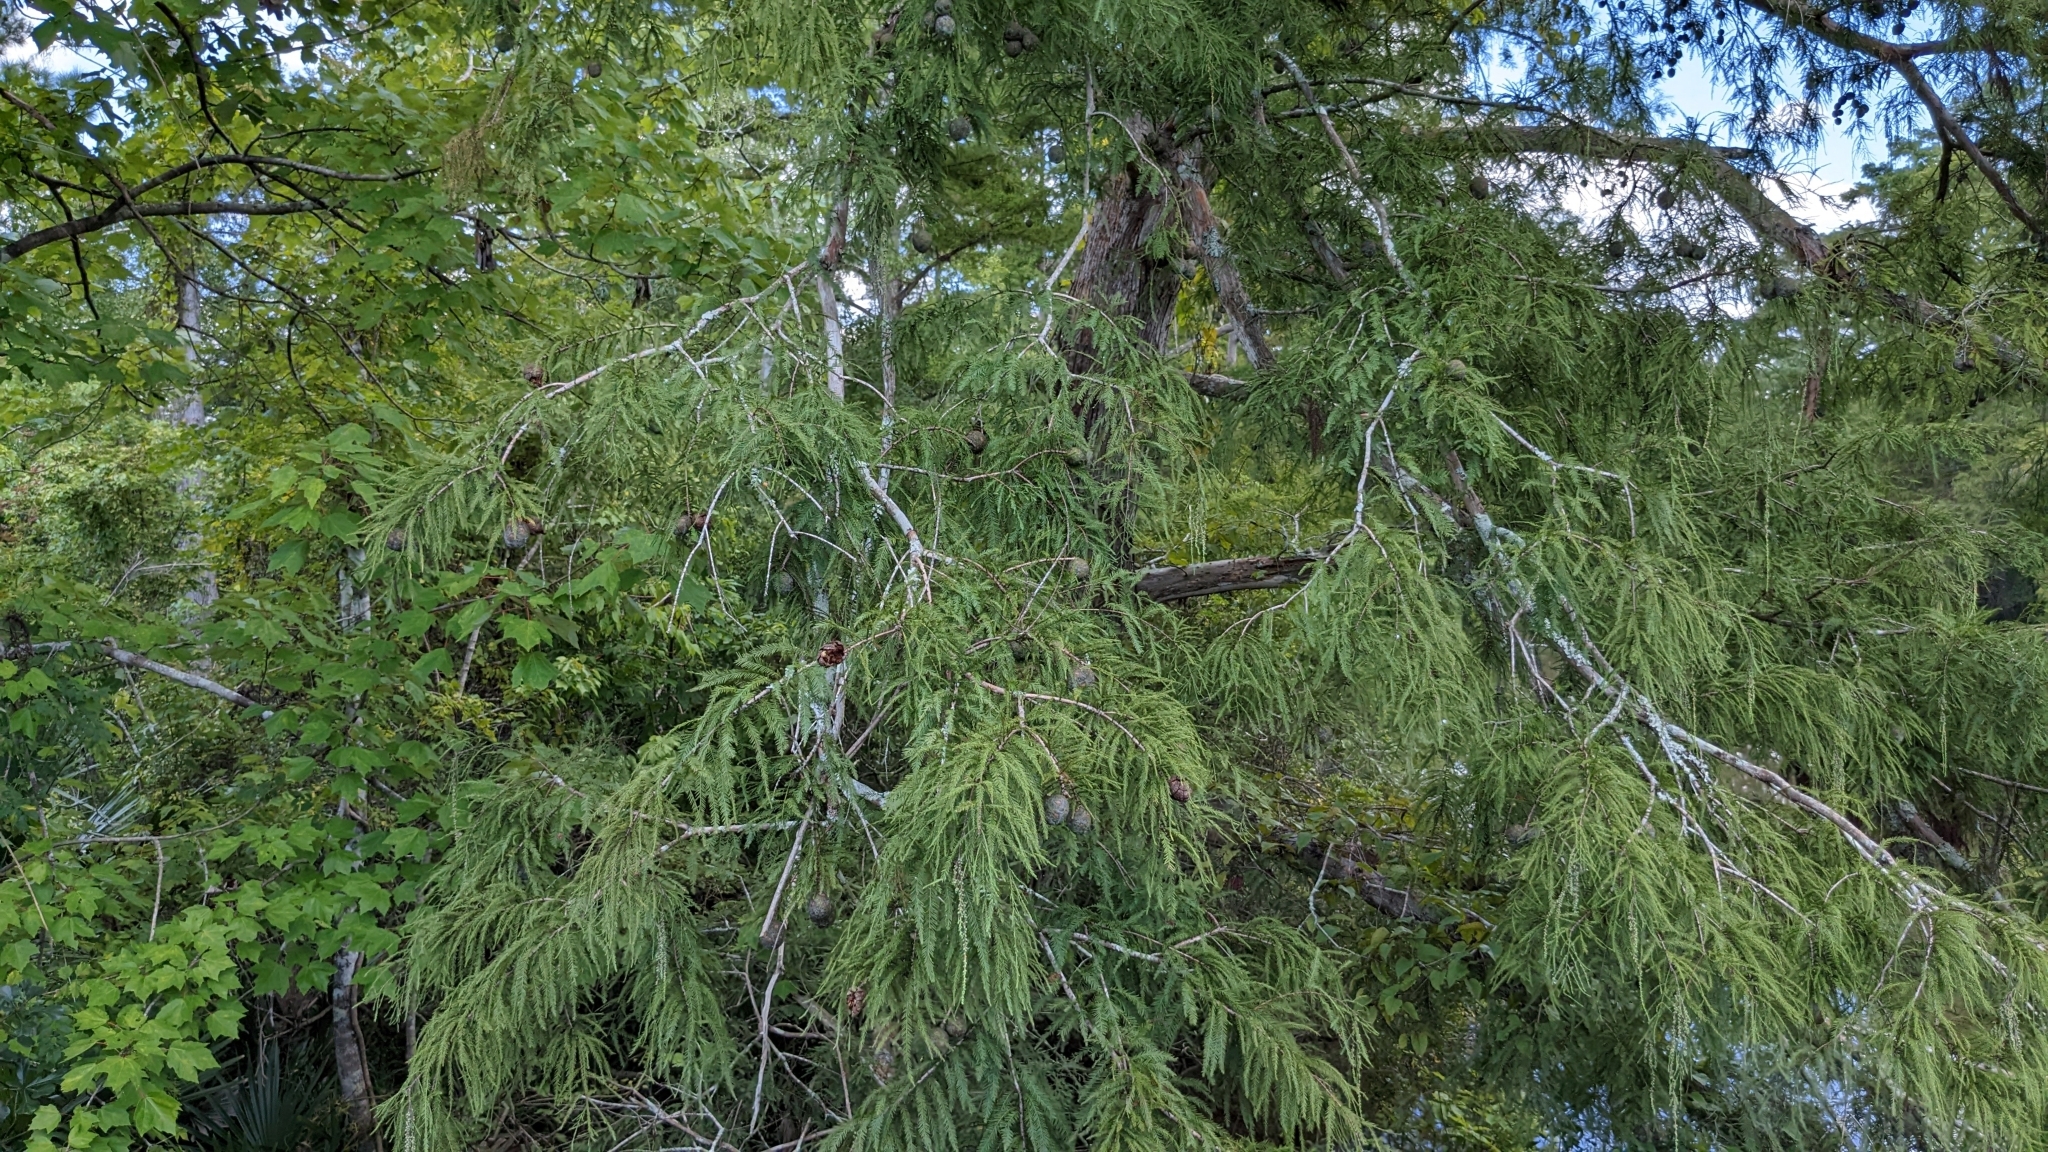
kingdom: Plantae
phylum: Tracheophyta
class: Pinopsida
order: Pinales
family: Cupressaceae
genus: Taxodium
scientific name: Taxodium distichum
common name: Bald cypress
